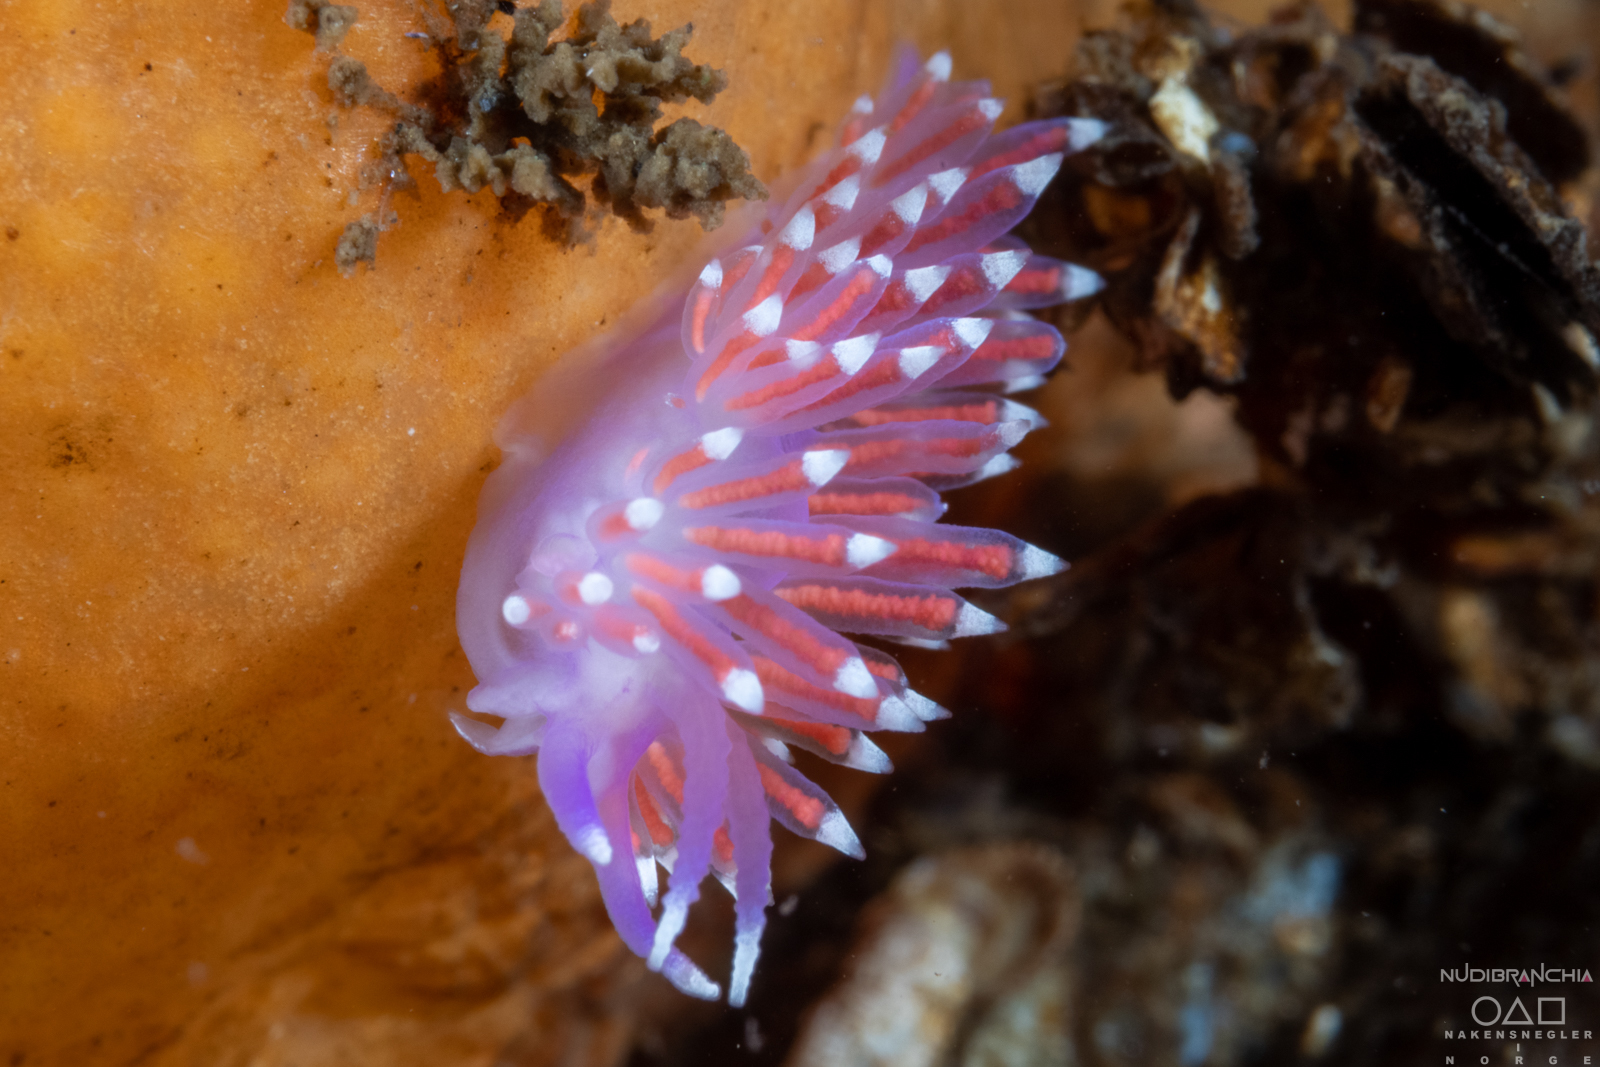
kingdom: Animalia
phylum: Mollusca
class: Gastropoda
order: Nudibranchia
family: Flabellinidae
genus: Edmundsella
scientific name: Edmundsella pedata
